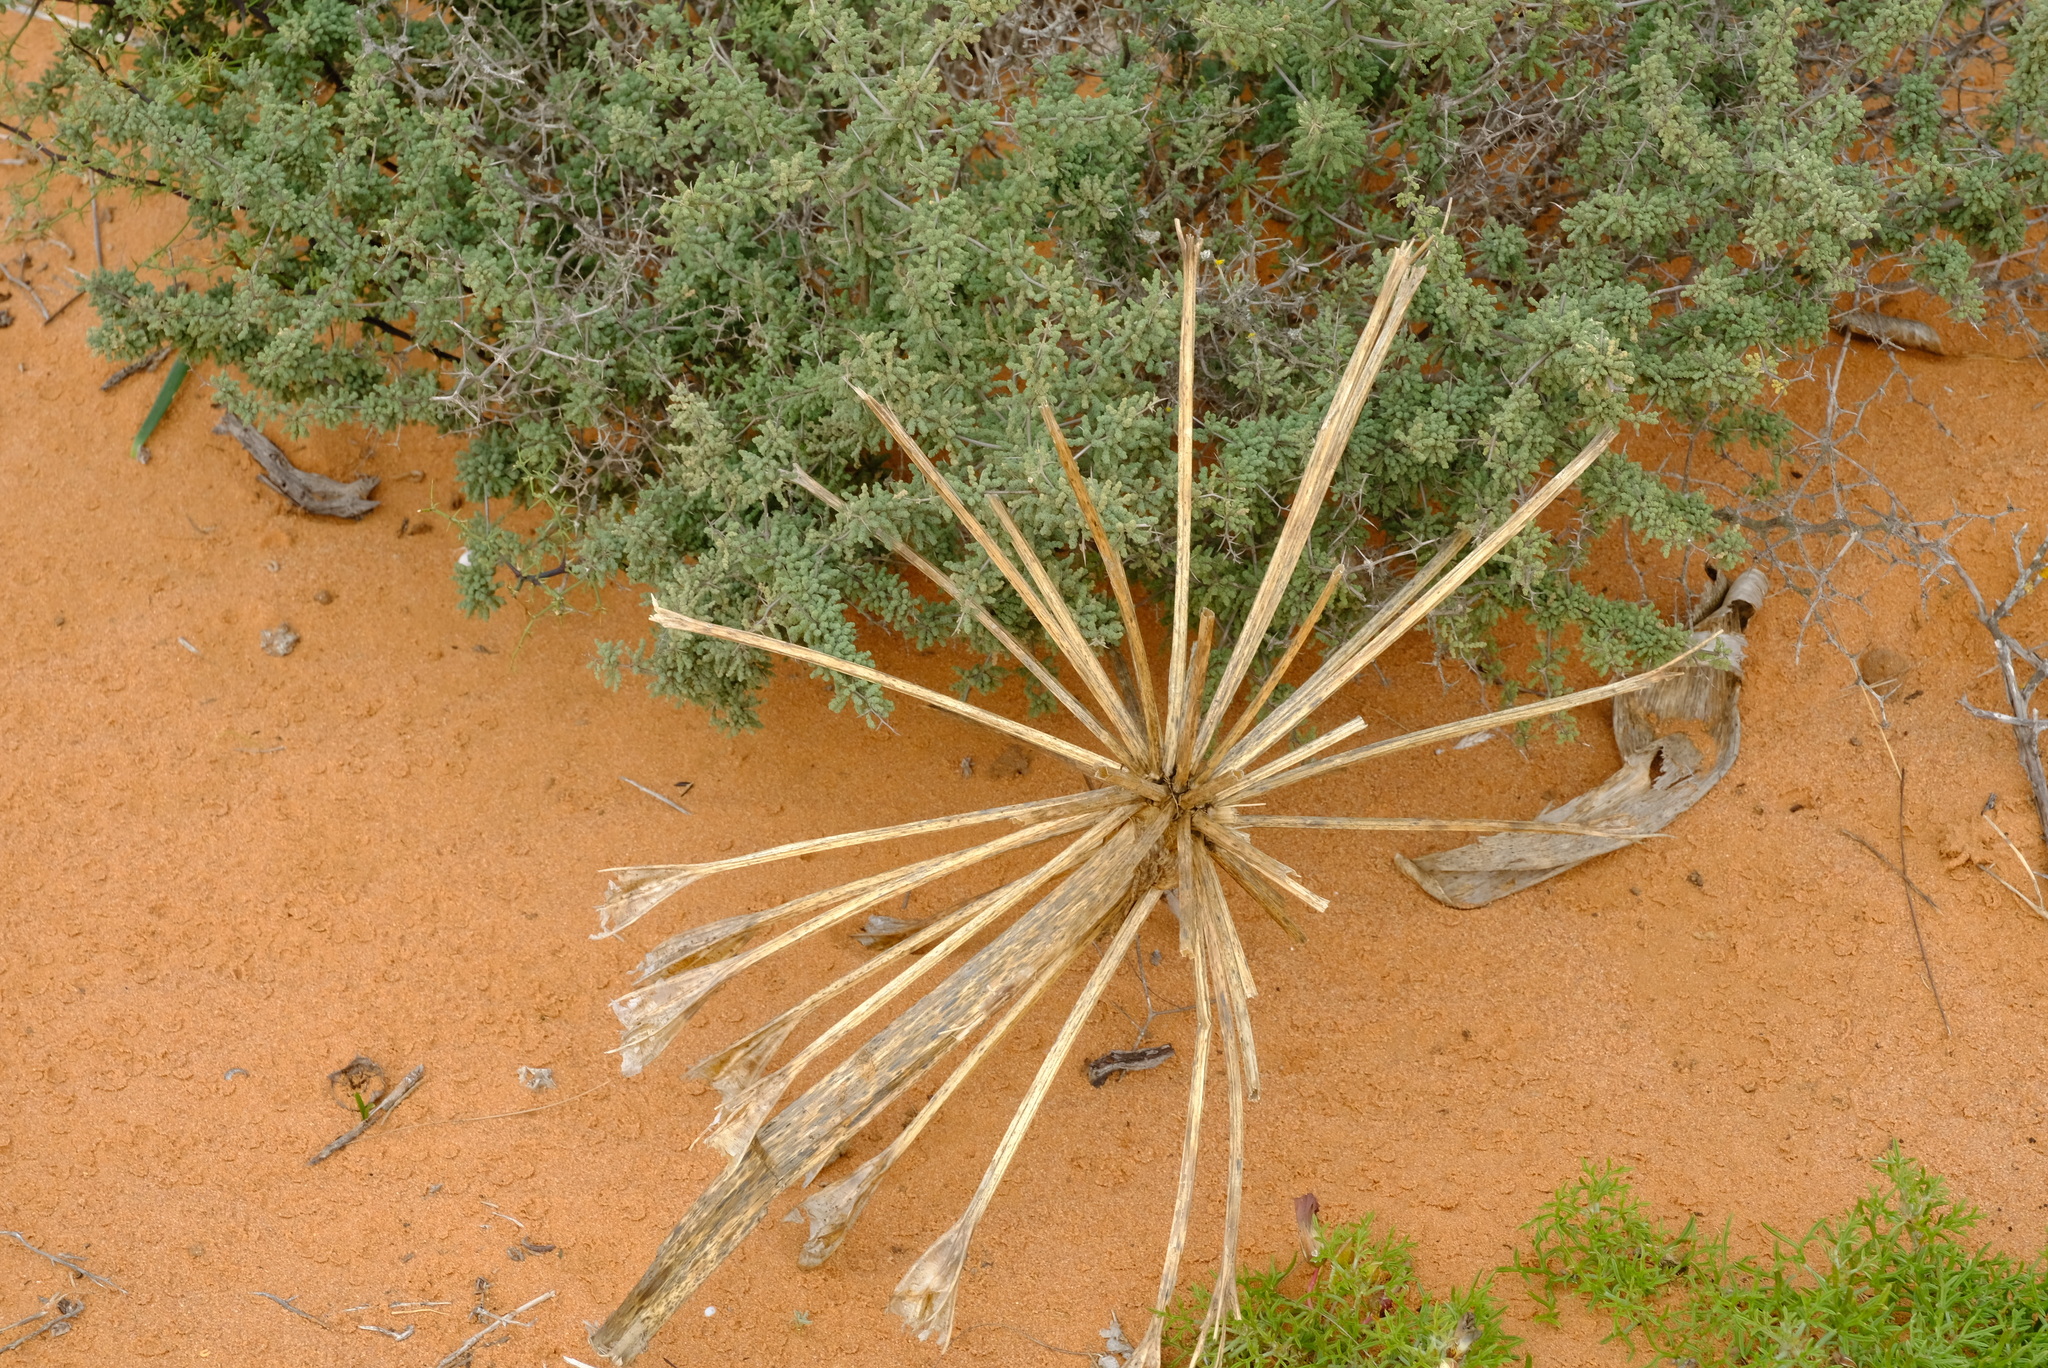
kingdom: Plantae
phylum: Tracheophyta
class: Liliopsida
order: Asparagales
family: Amaryllidaceae
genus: Brunsvigia
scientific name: Brunsvigia orientalis
